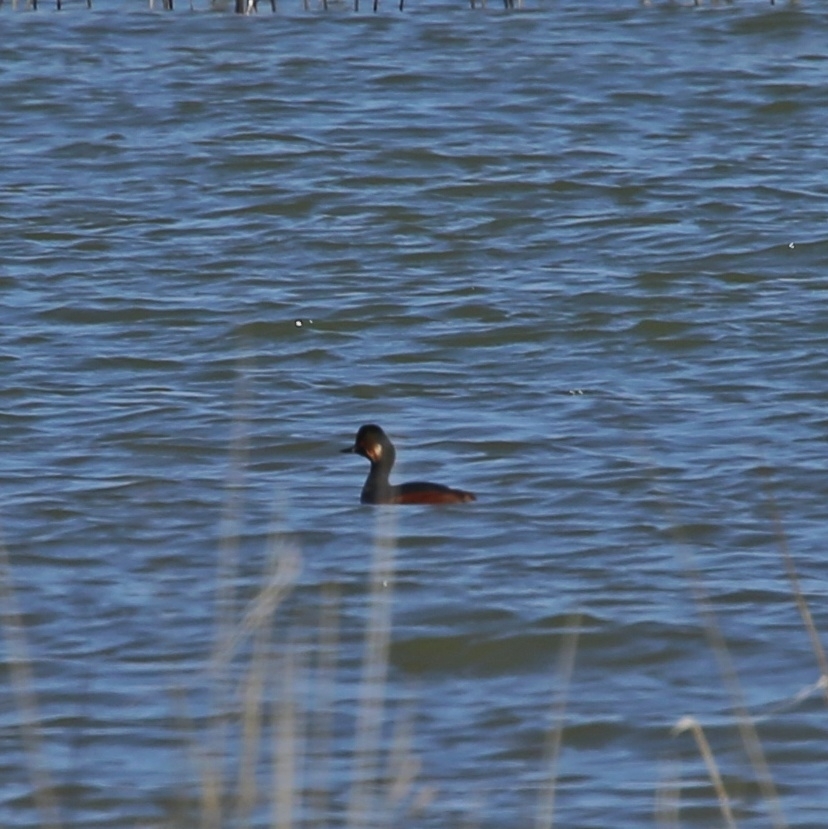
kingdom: Animalia
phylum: Chordata
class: Aves
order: Podicipediformes
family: Podicipedidae
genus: Podiceps
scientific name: Podiceps nigricollis
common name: Black-necked grebe
